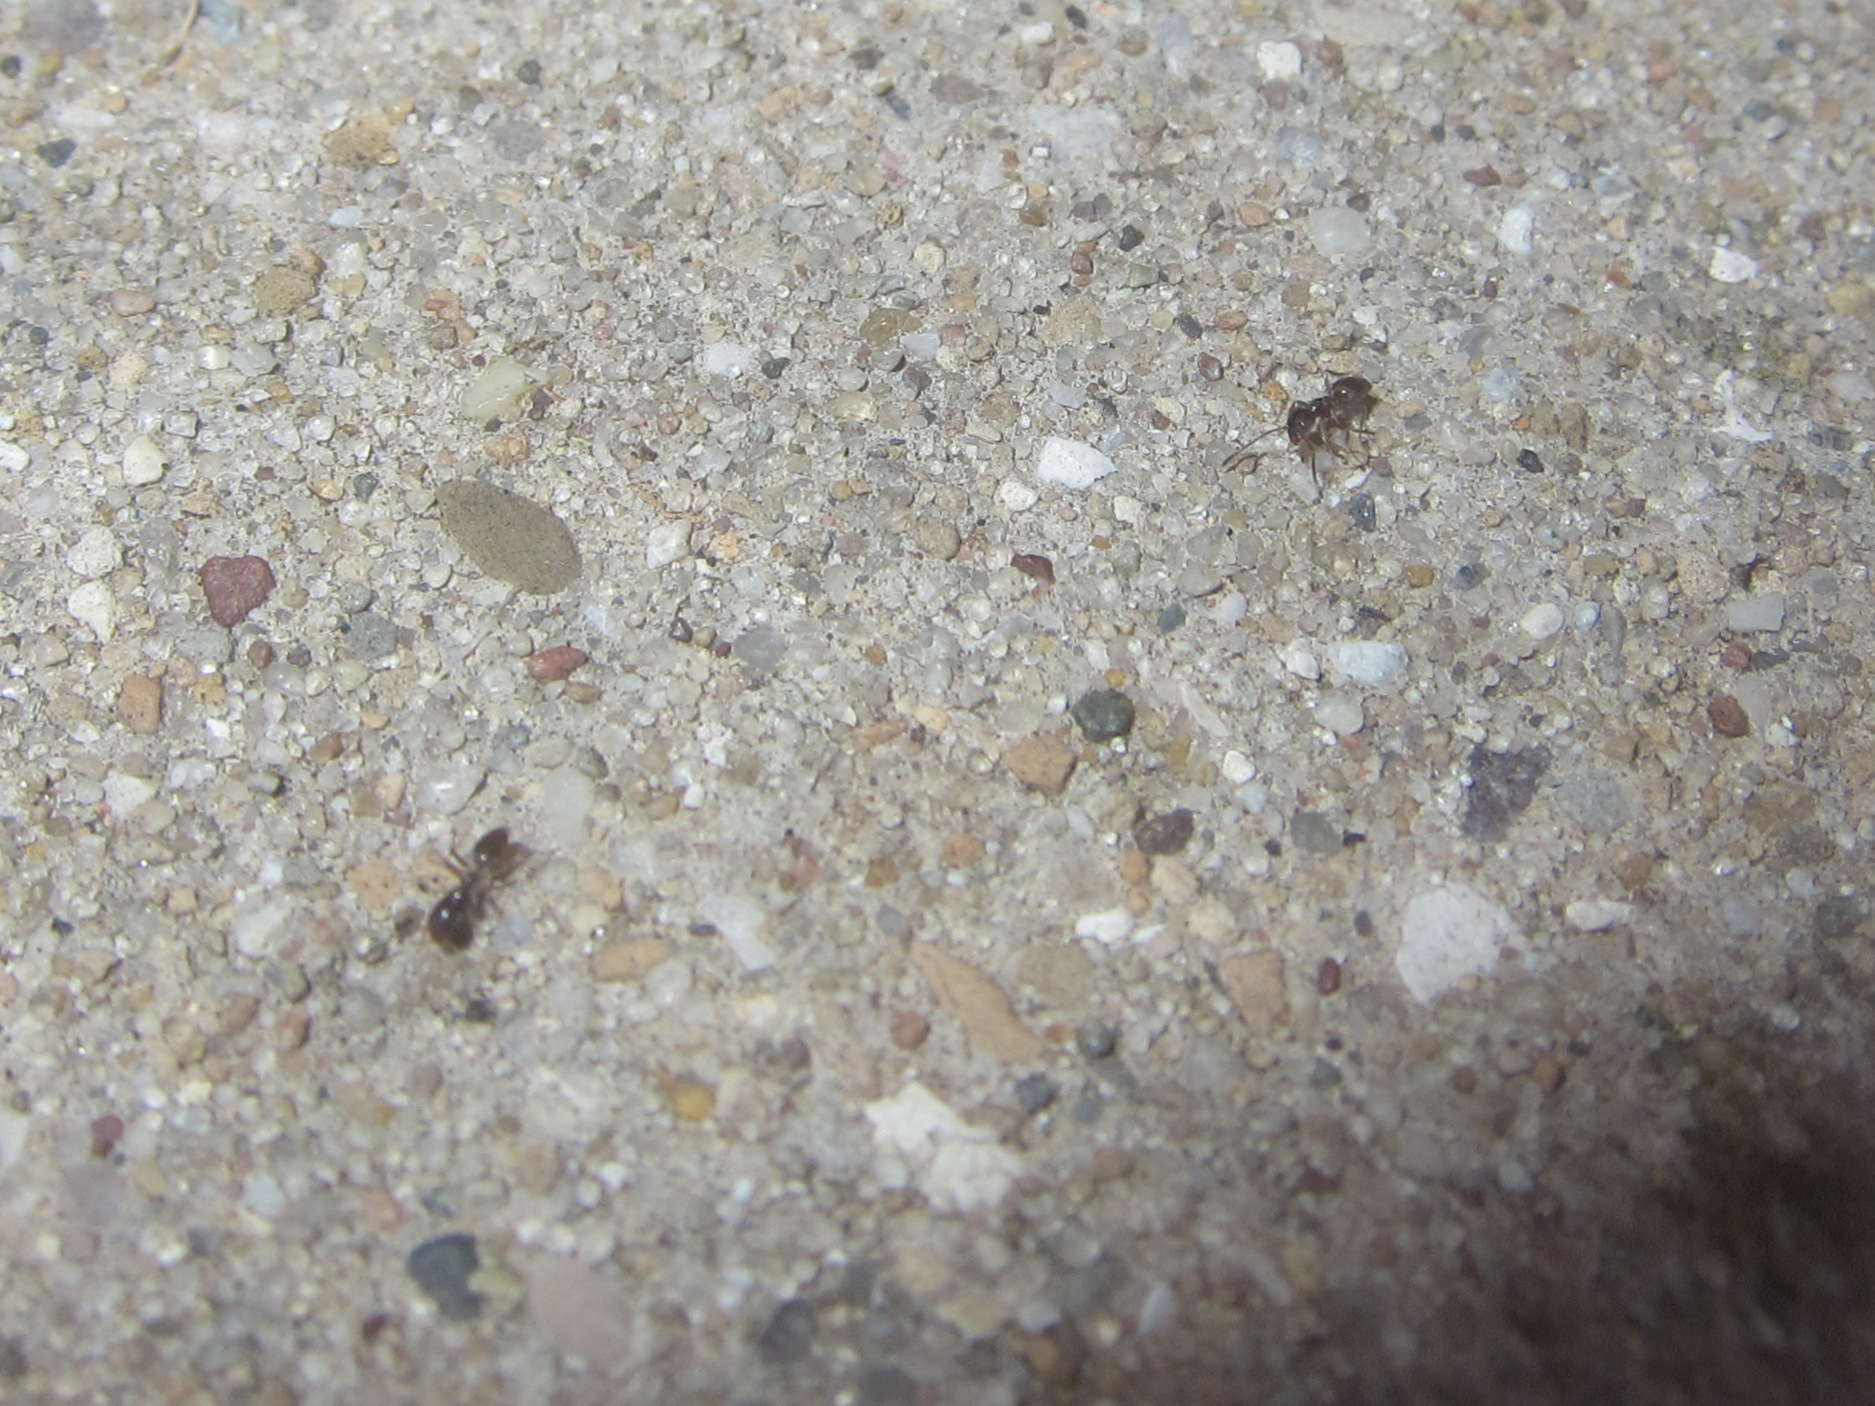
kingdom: Animalia
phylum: Arthropoda
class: Insecta
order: Hymenoptera
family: Formicidae
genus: Tapinoma
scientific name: Tapinoma sessile
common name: Odorous house ant
